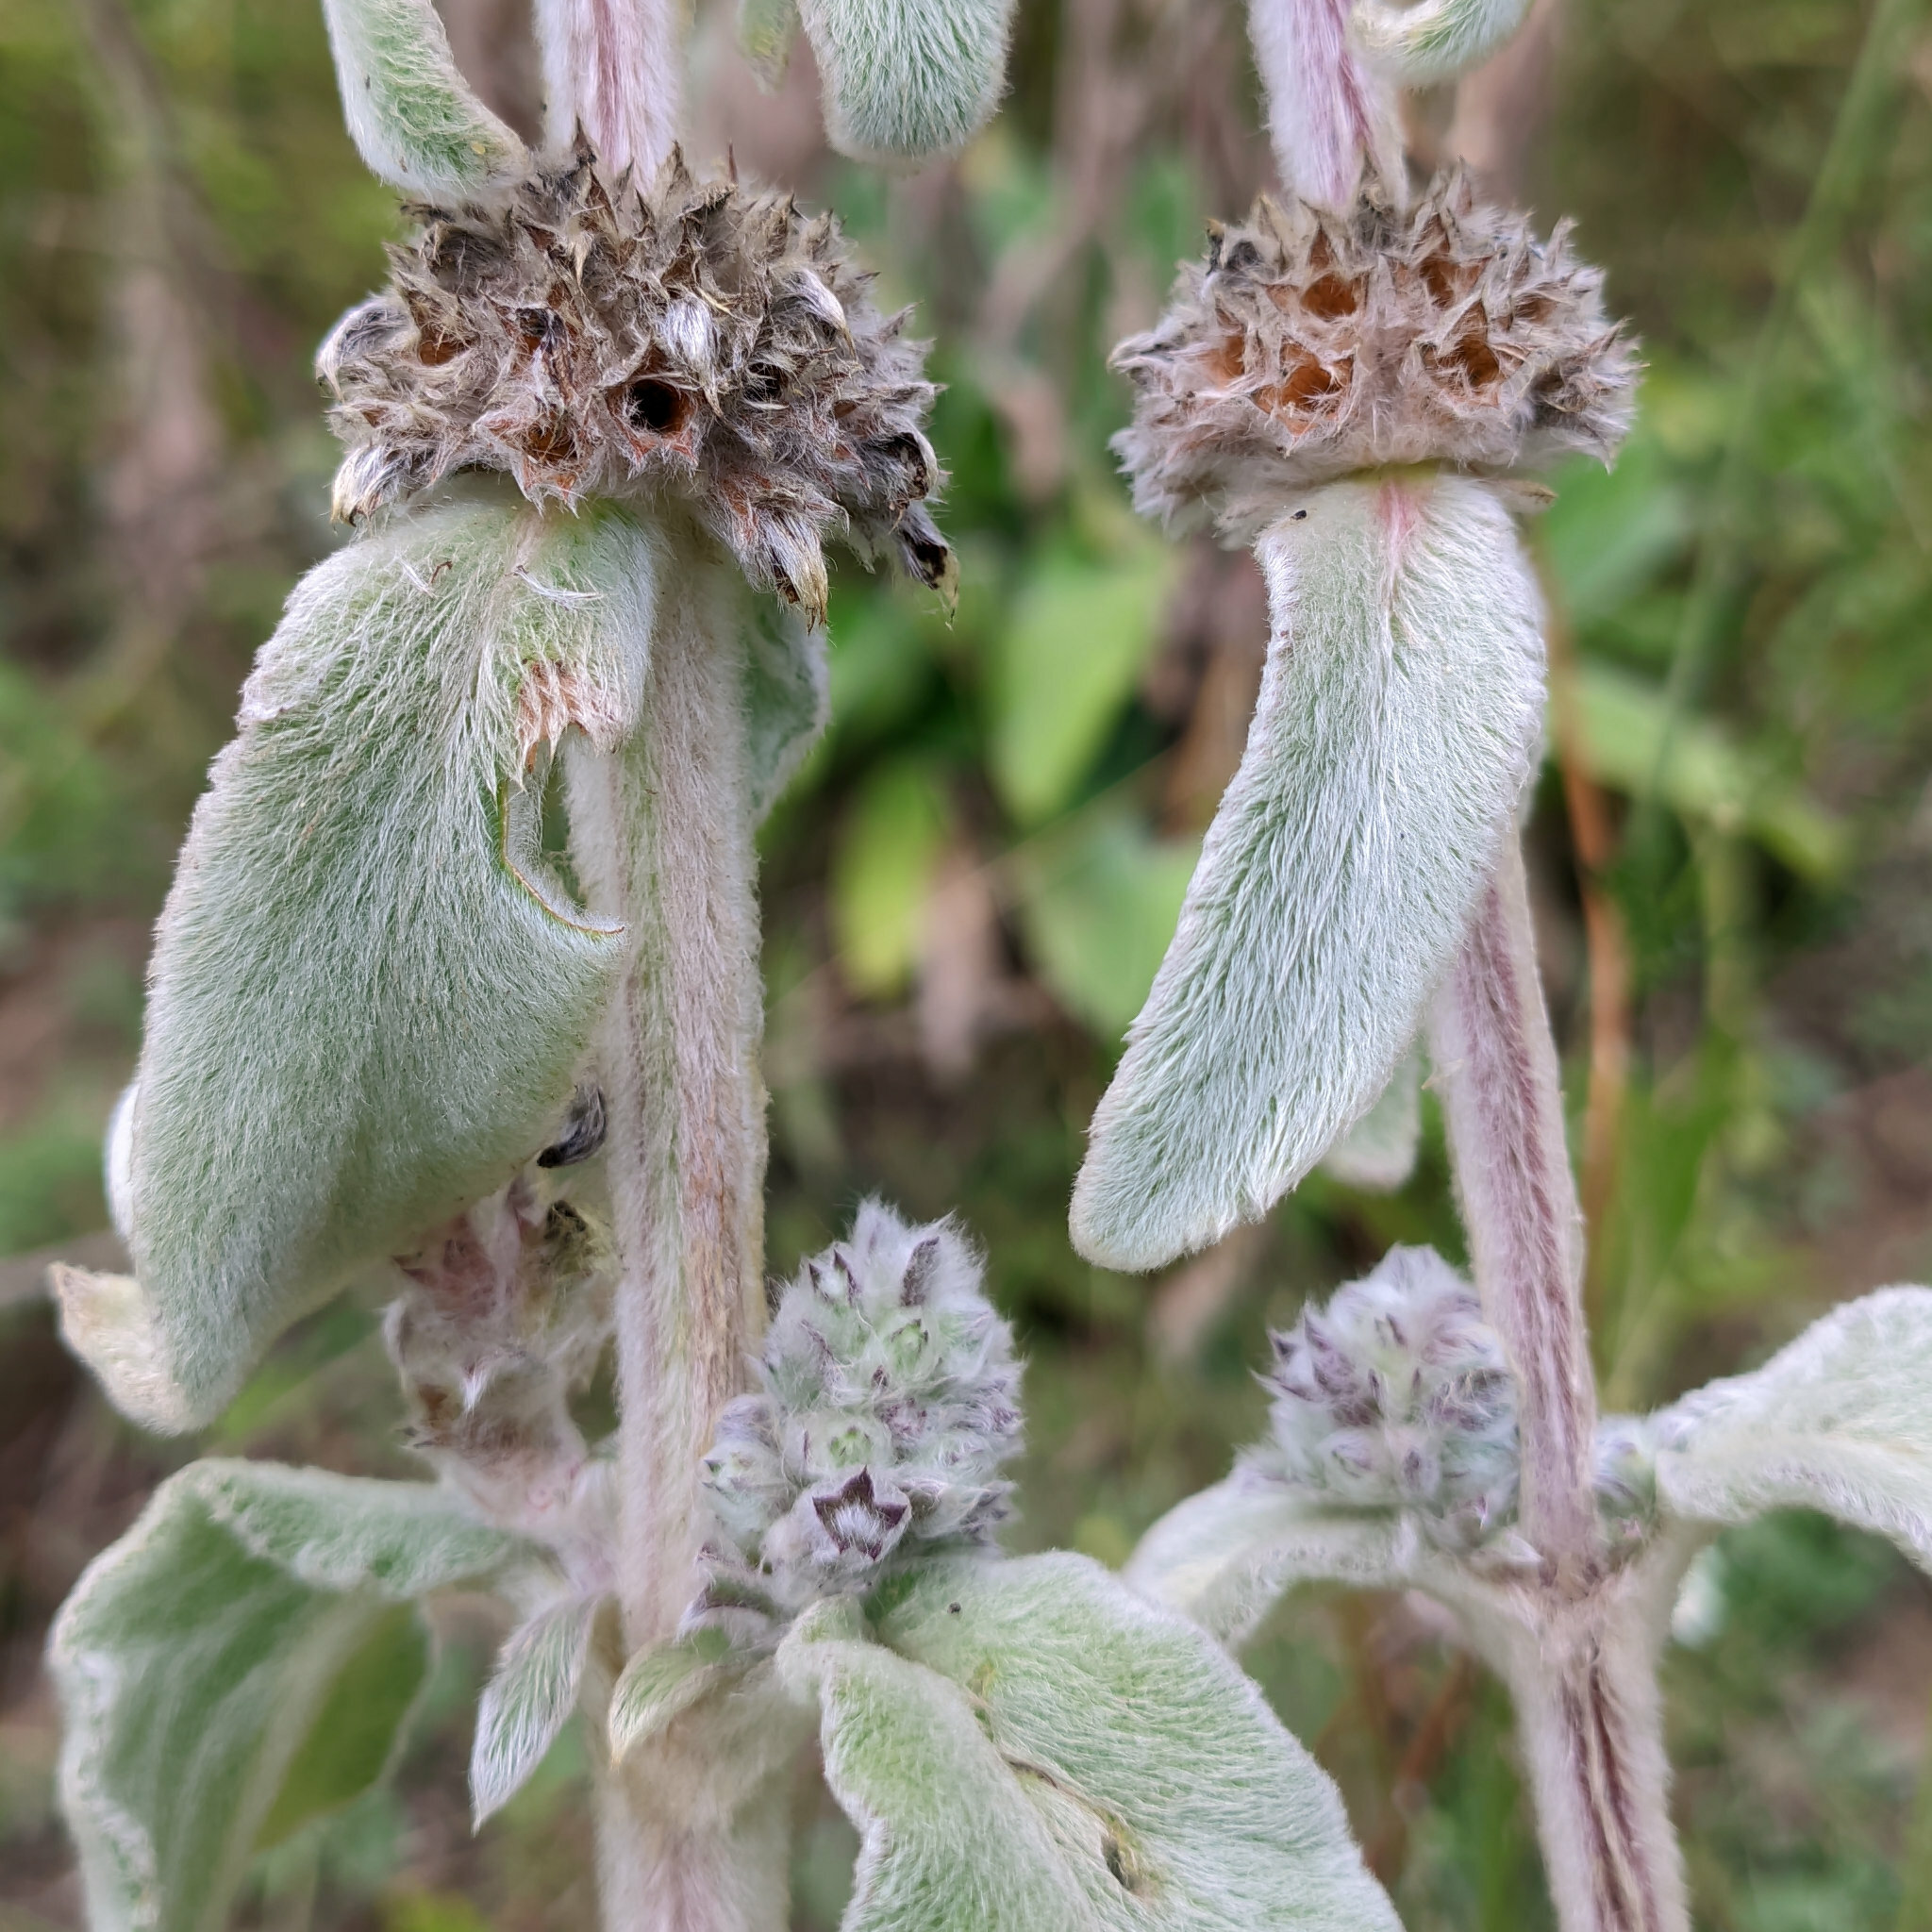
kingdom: Plantae
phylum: Tracheophyta
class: Magnoliopsida
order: Lamiales
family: Lamiaceae
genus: Stachys
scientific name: Stachys germanica
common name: Downy woundwort
